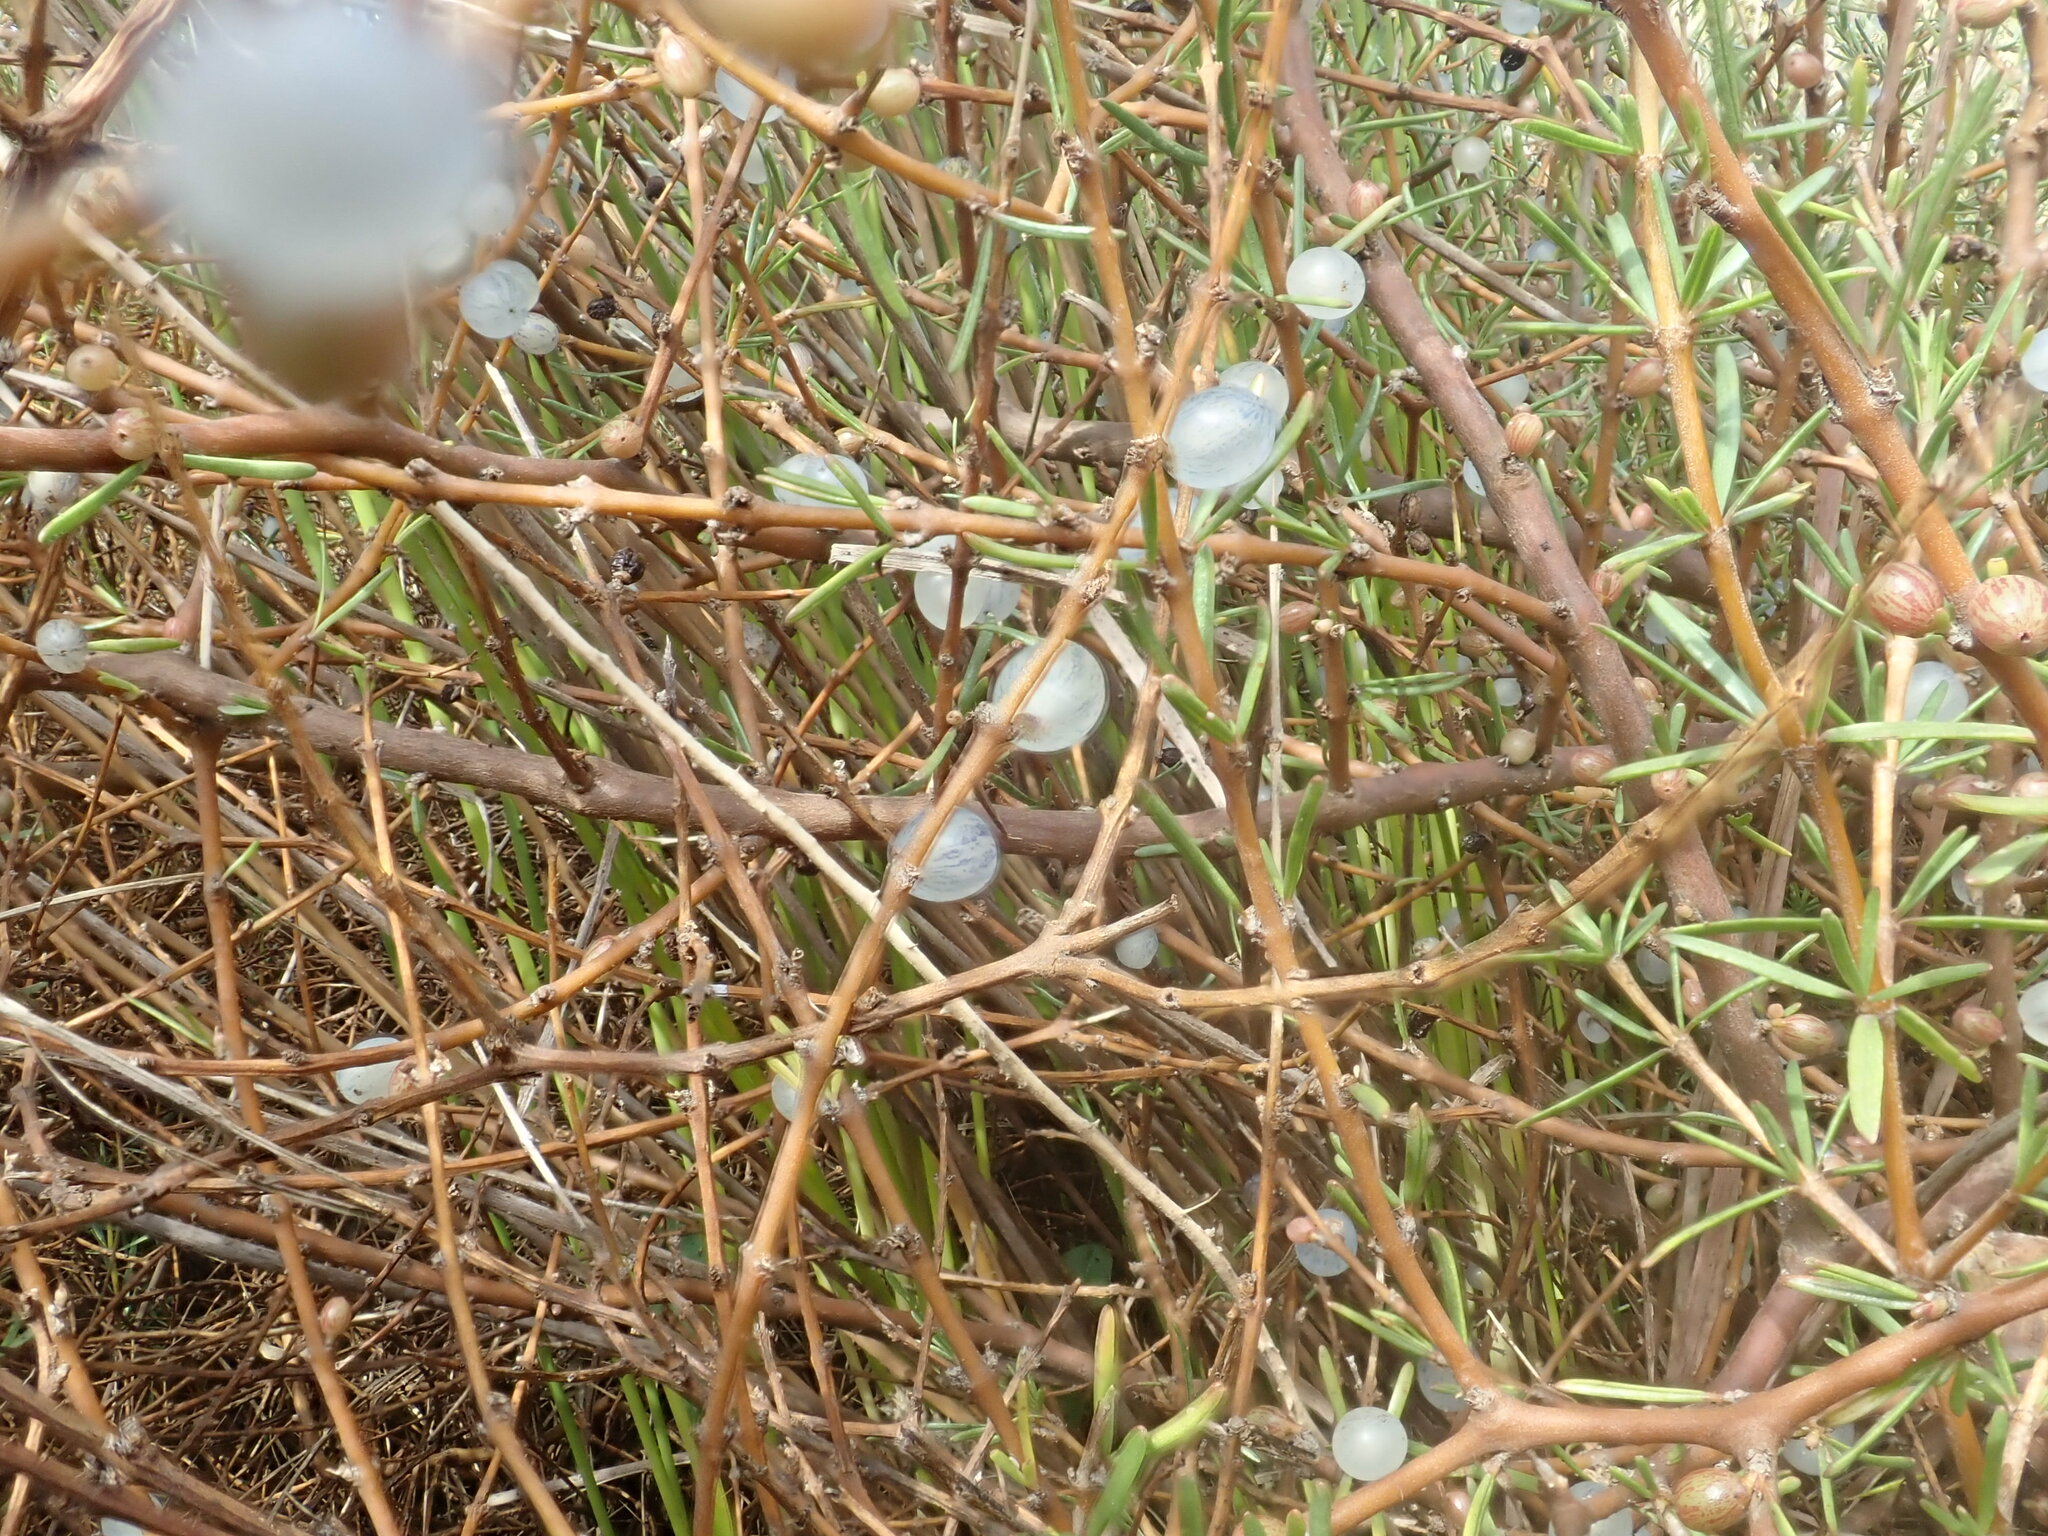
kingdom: Plantae
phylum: Tracheophyta
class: Magnoliopsida
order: Gentianales
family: Rubiaceae
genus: Coprosma
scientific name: Coprosma acerosa
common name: Sand coprosma
